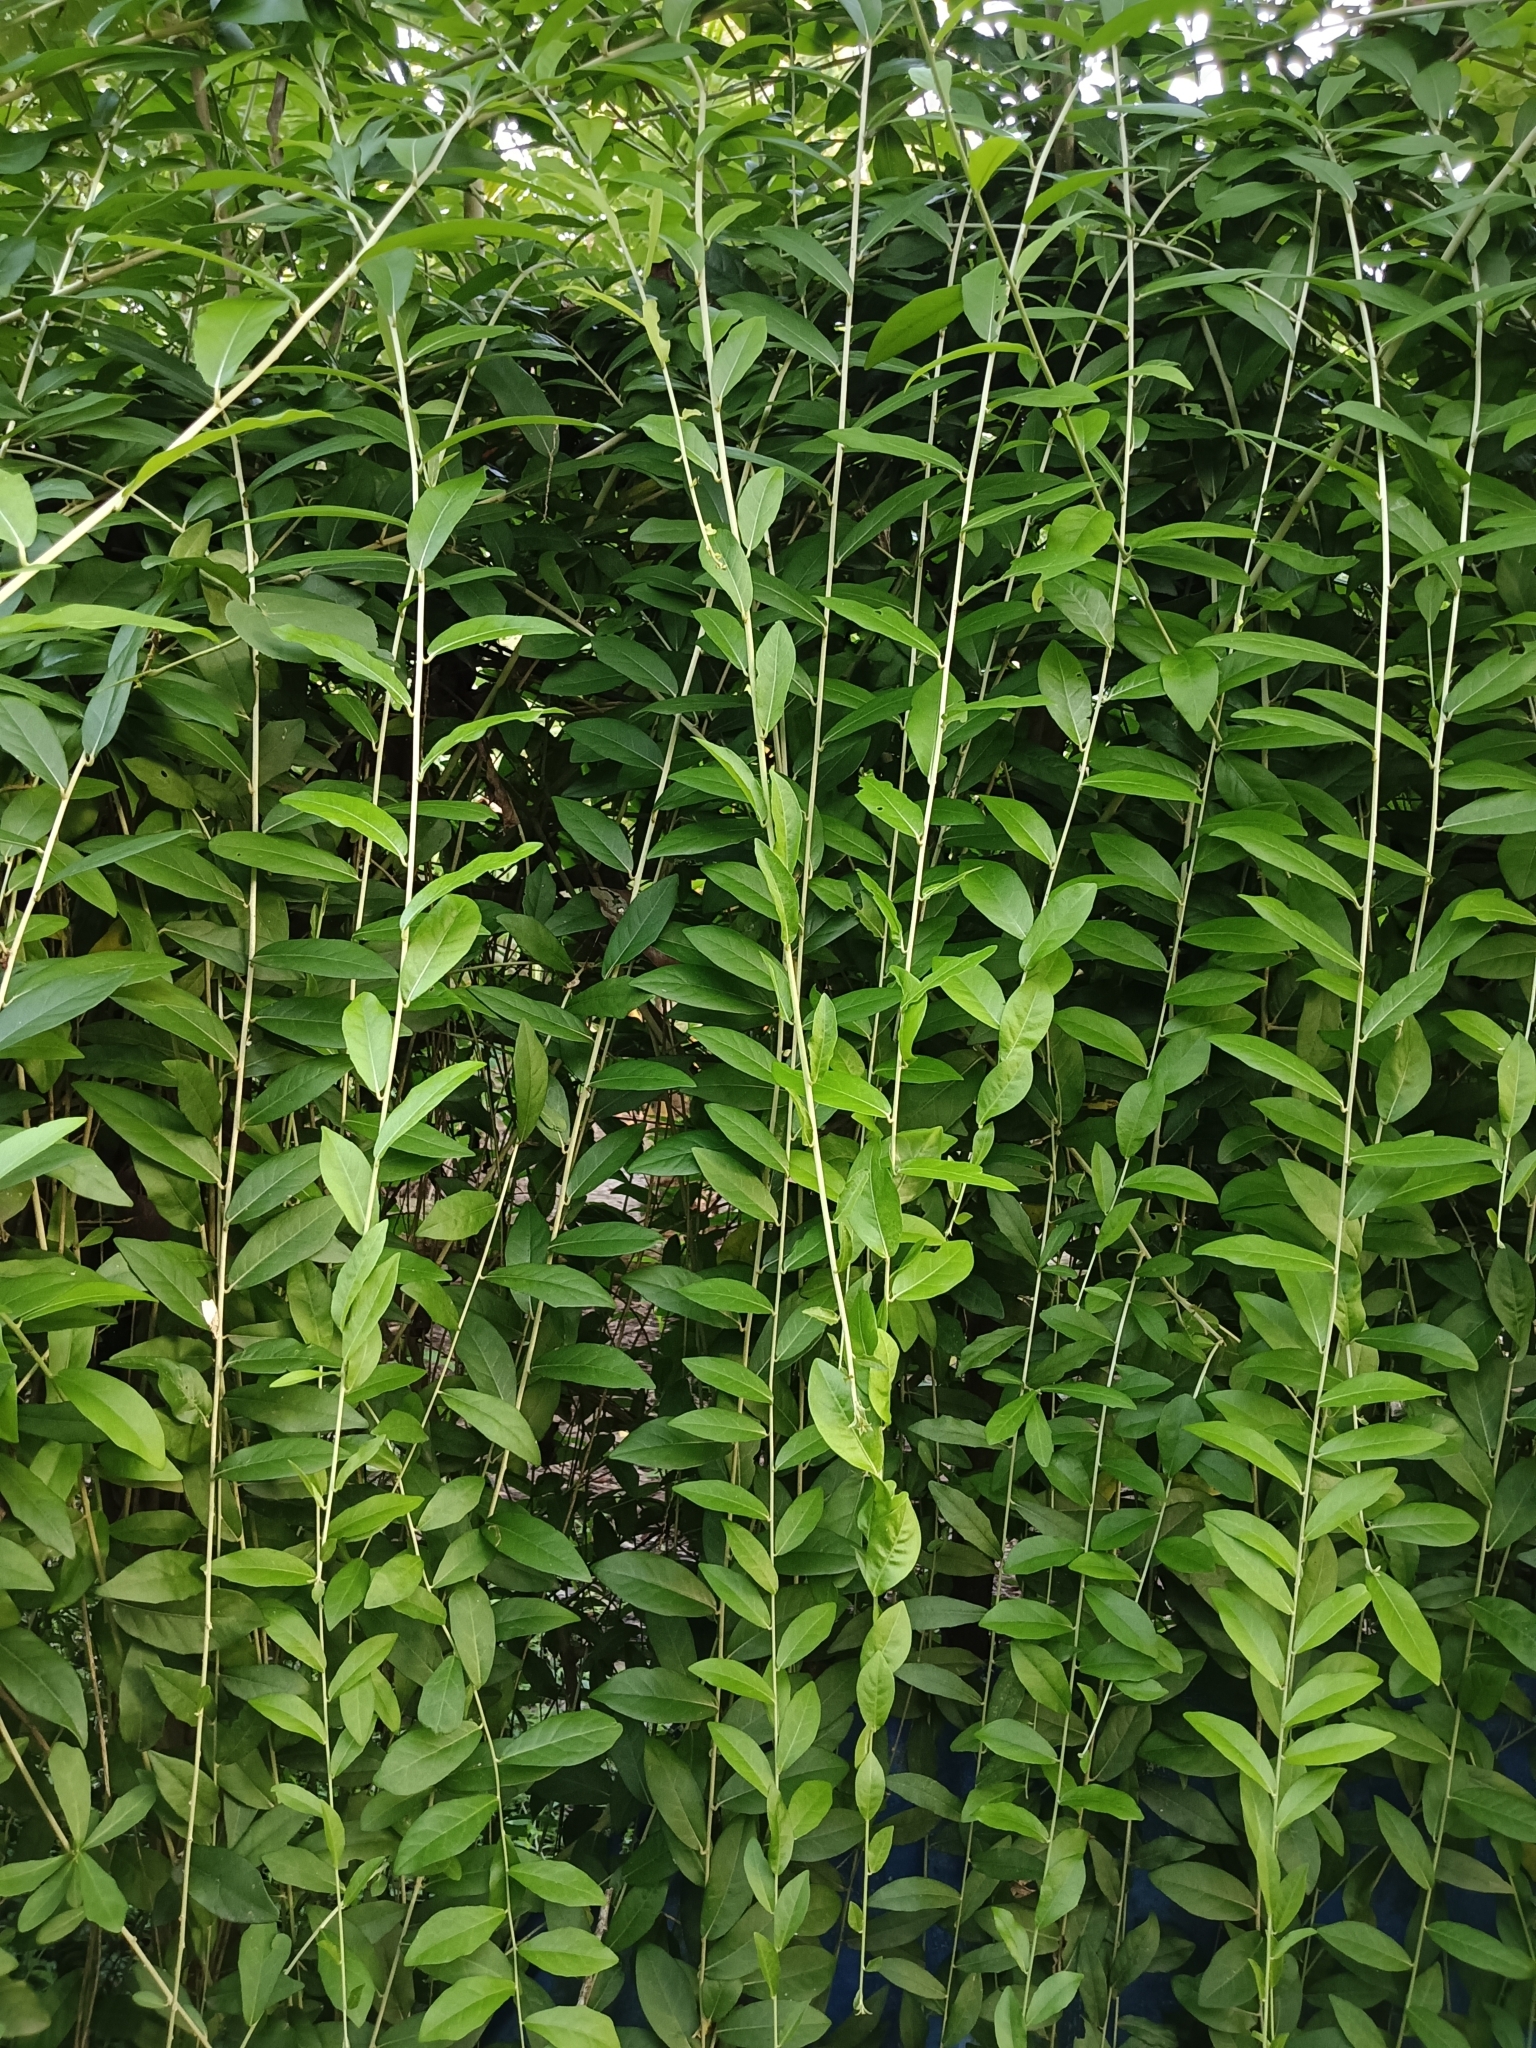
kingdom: Plantae
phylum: Tracheophyta
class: Magnoliopsida
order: Asterales
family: Asteraceae
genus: Tarlmounia
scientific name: Tarlmounia elliptica
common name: Kheua sa lot
